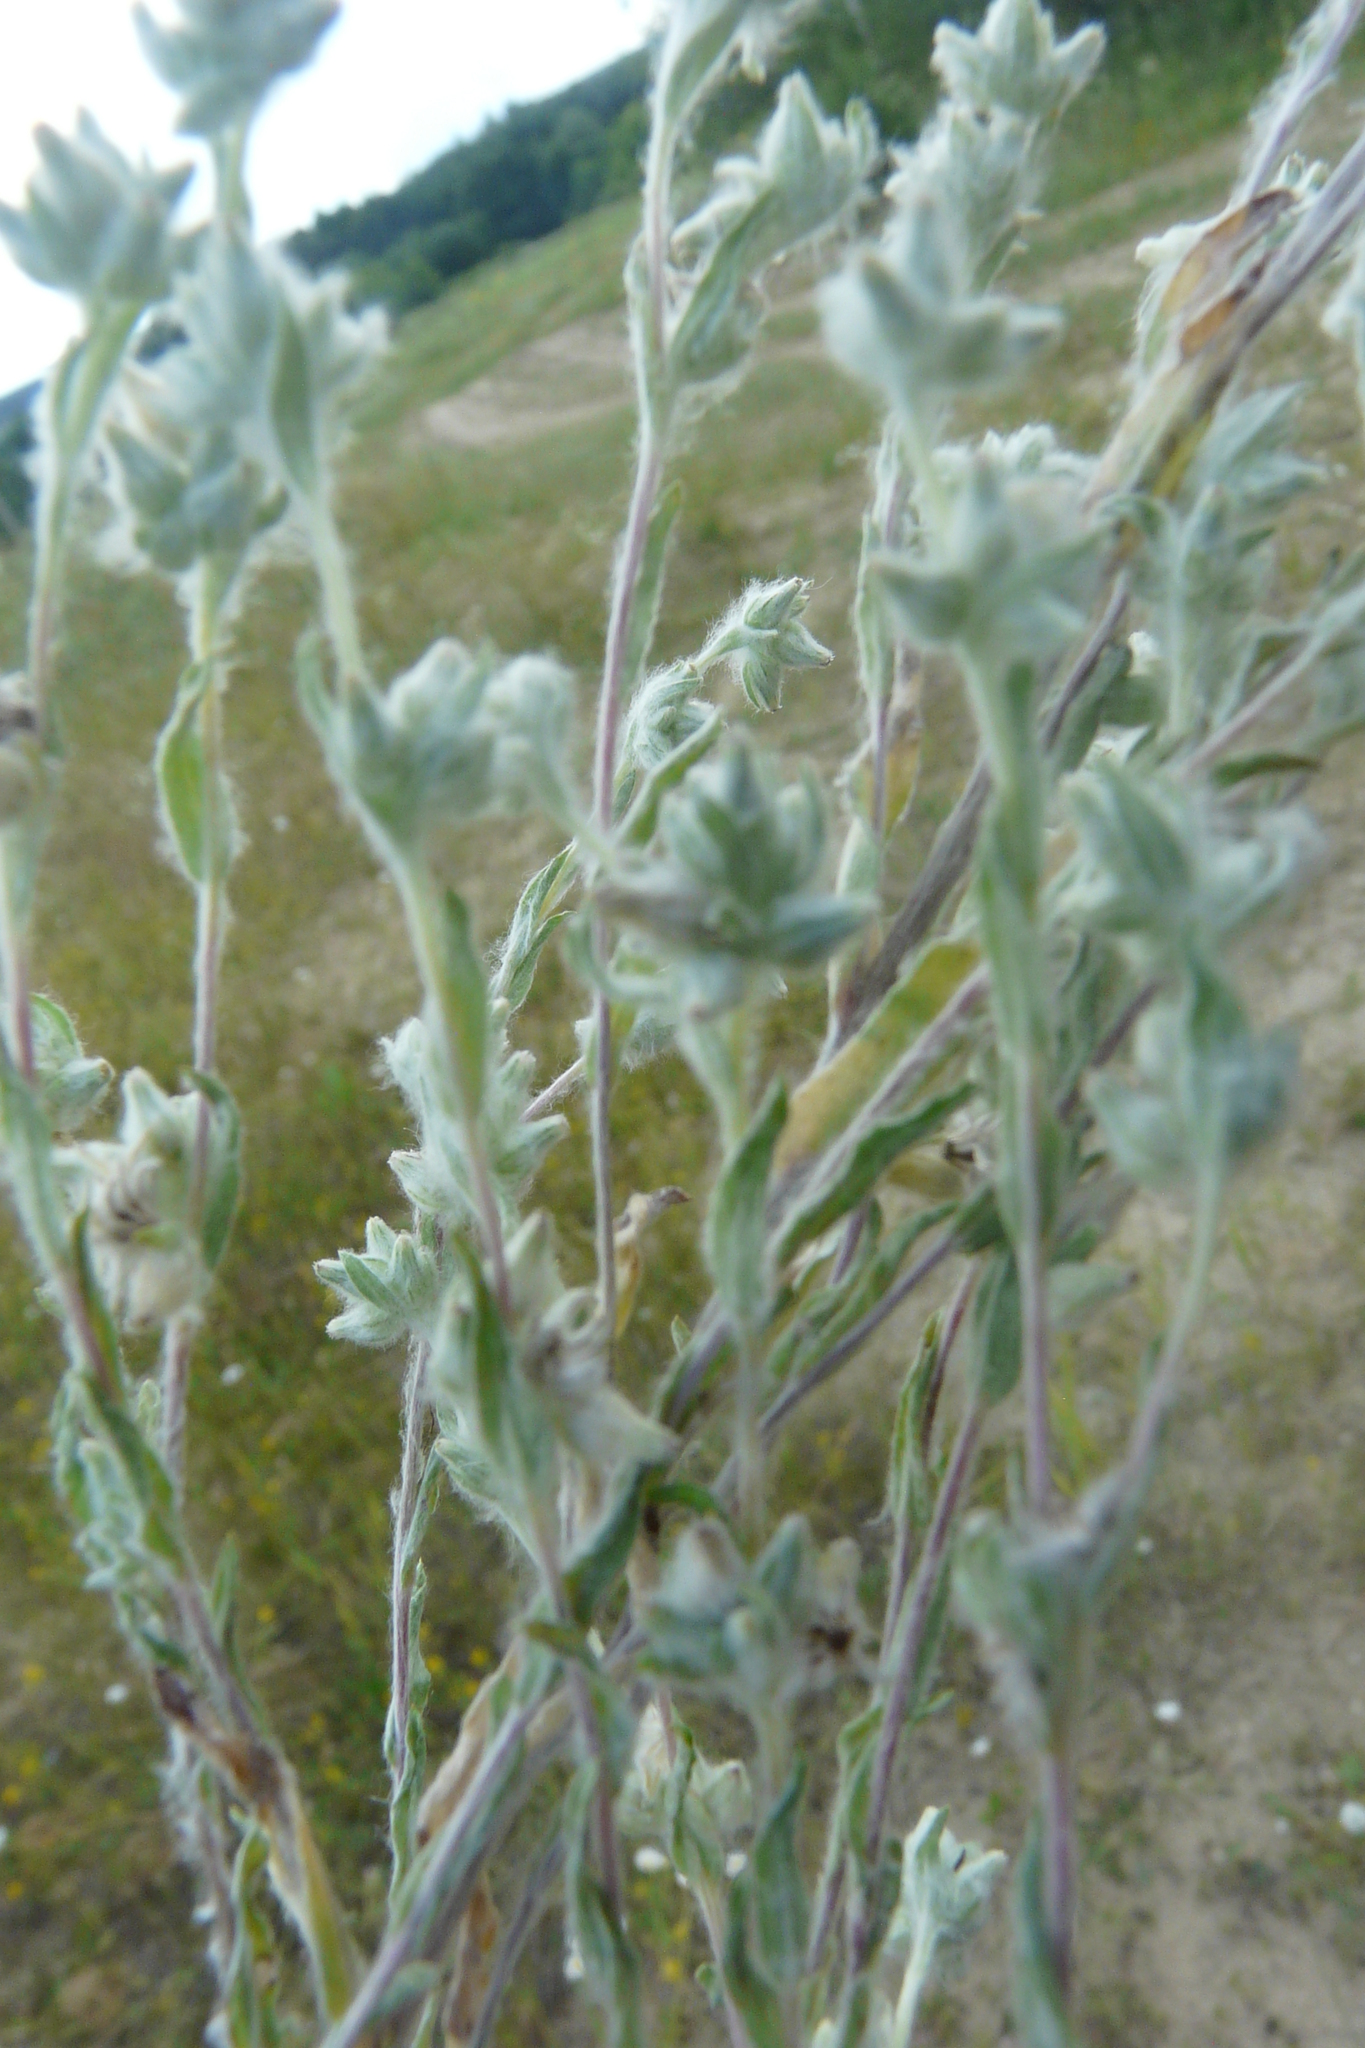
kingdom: Plantae
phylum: Tracheophyta
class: Magnoliopsida
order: Asterales
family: Asteraceae
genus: Filago
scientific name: Filago arvensis
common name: Field cudweed
